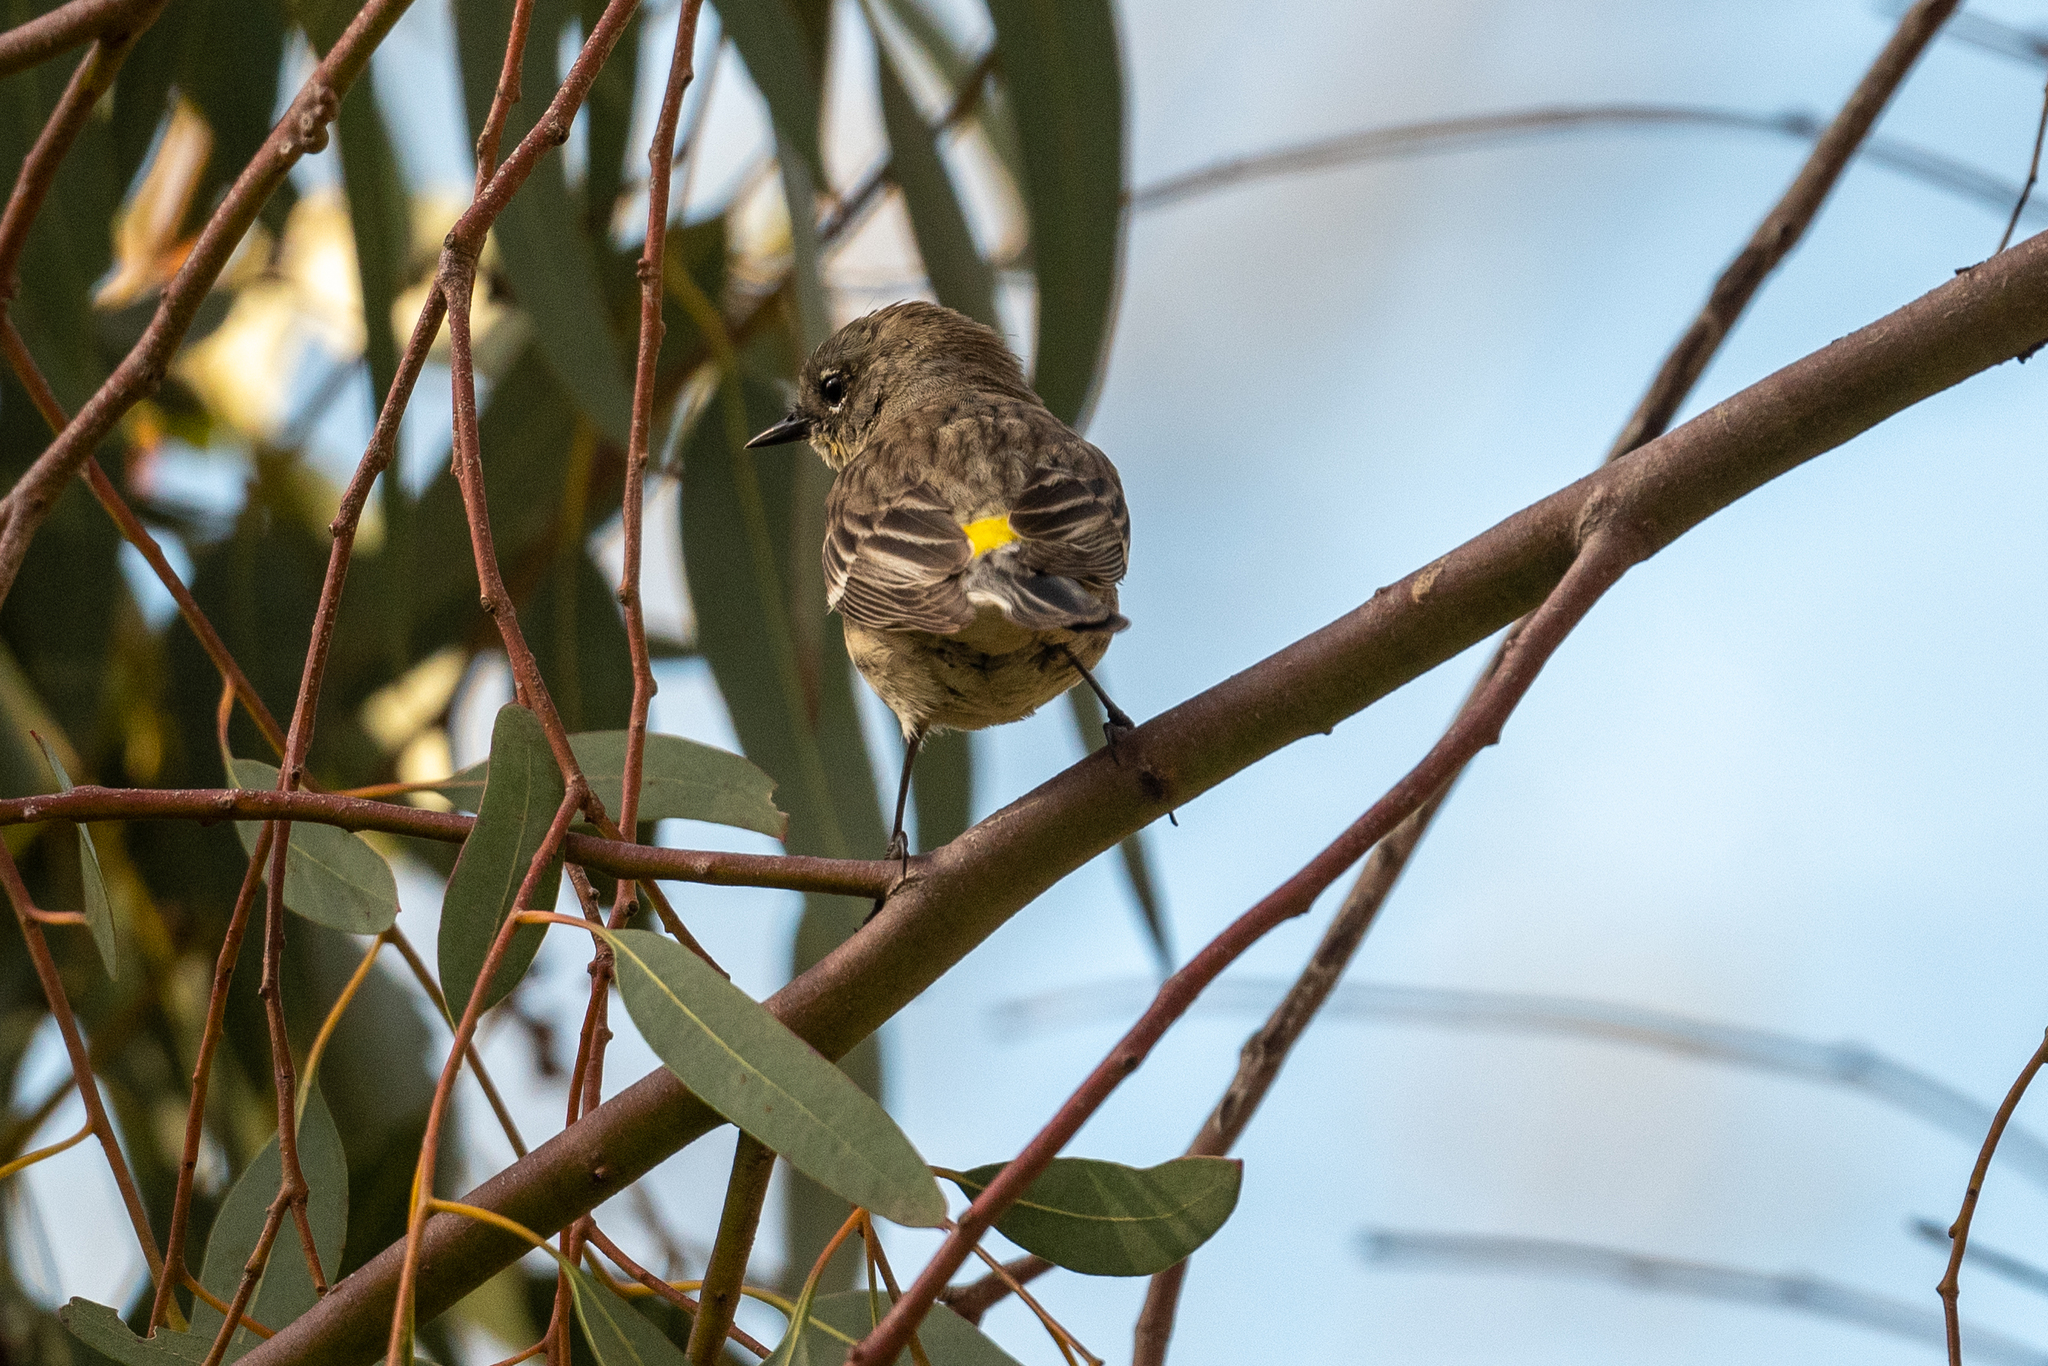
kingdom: Animalia
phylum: Chordata
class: Aves
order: Passeriformes
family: Parulidae
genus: Setophaga
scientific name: Setophaga coronata
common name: Myrtle warbler
